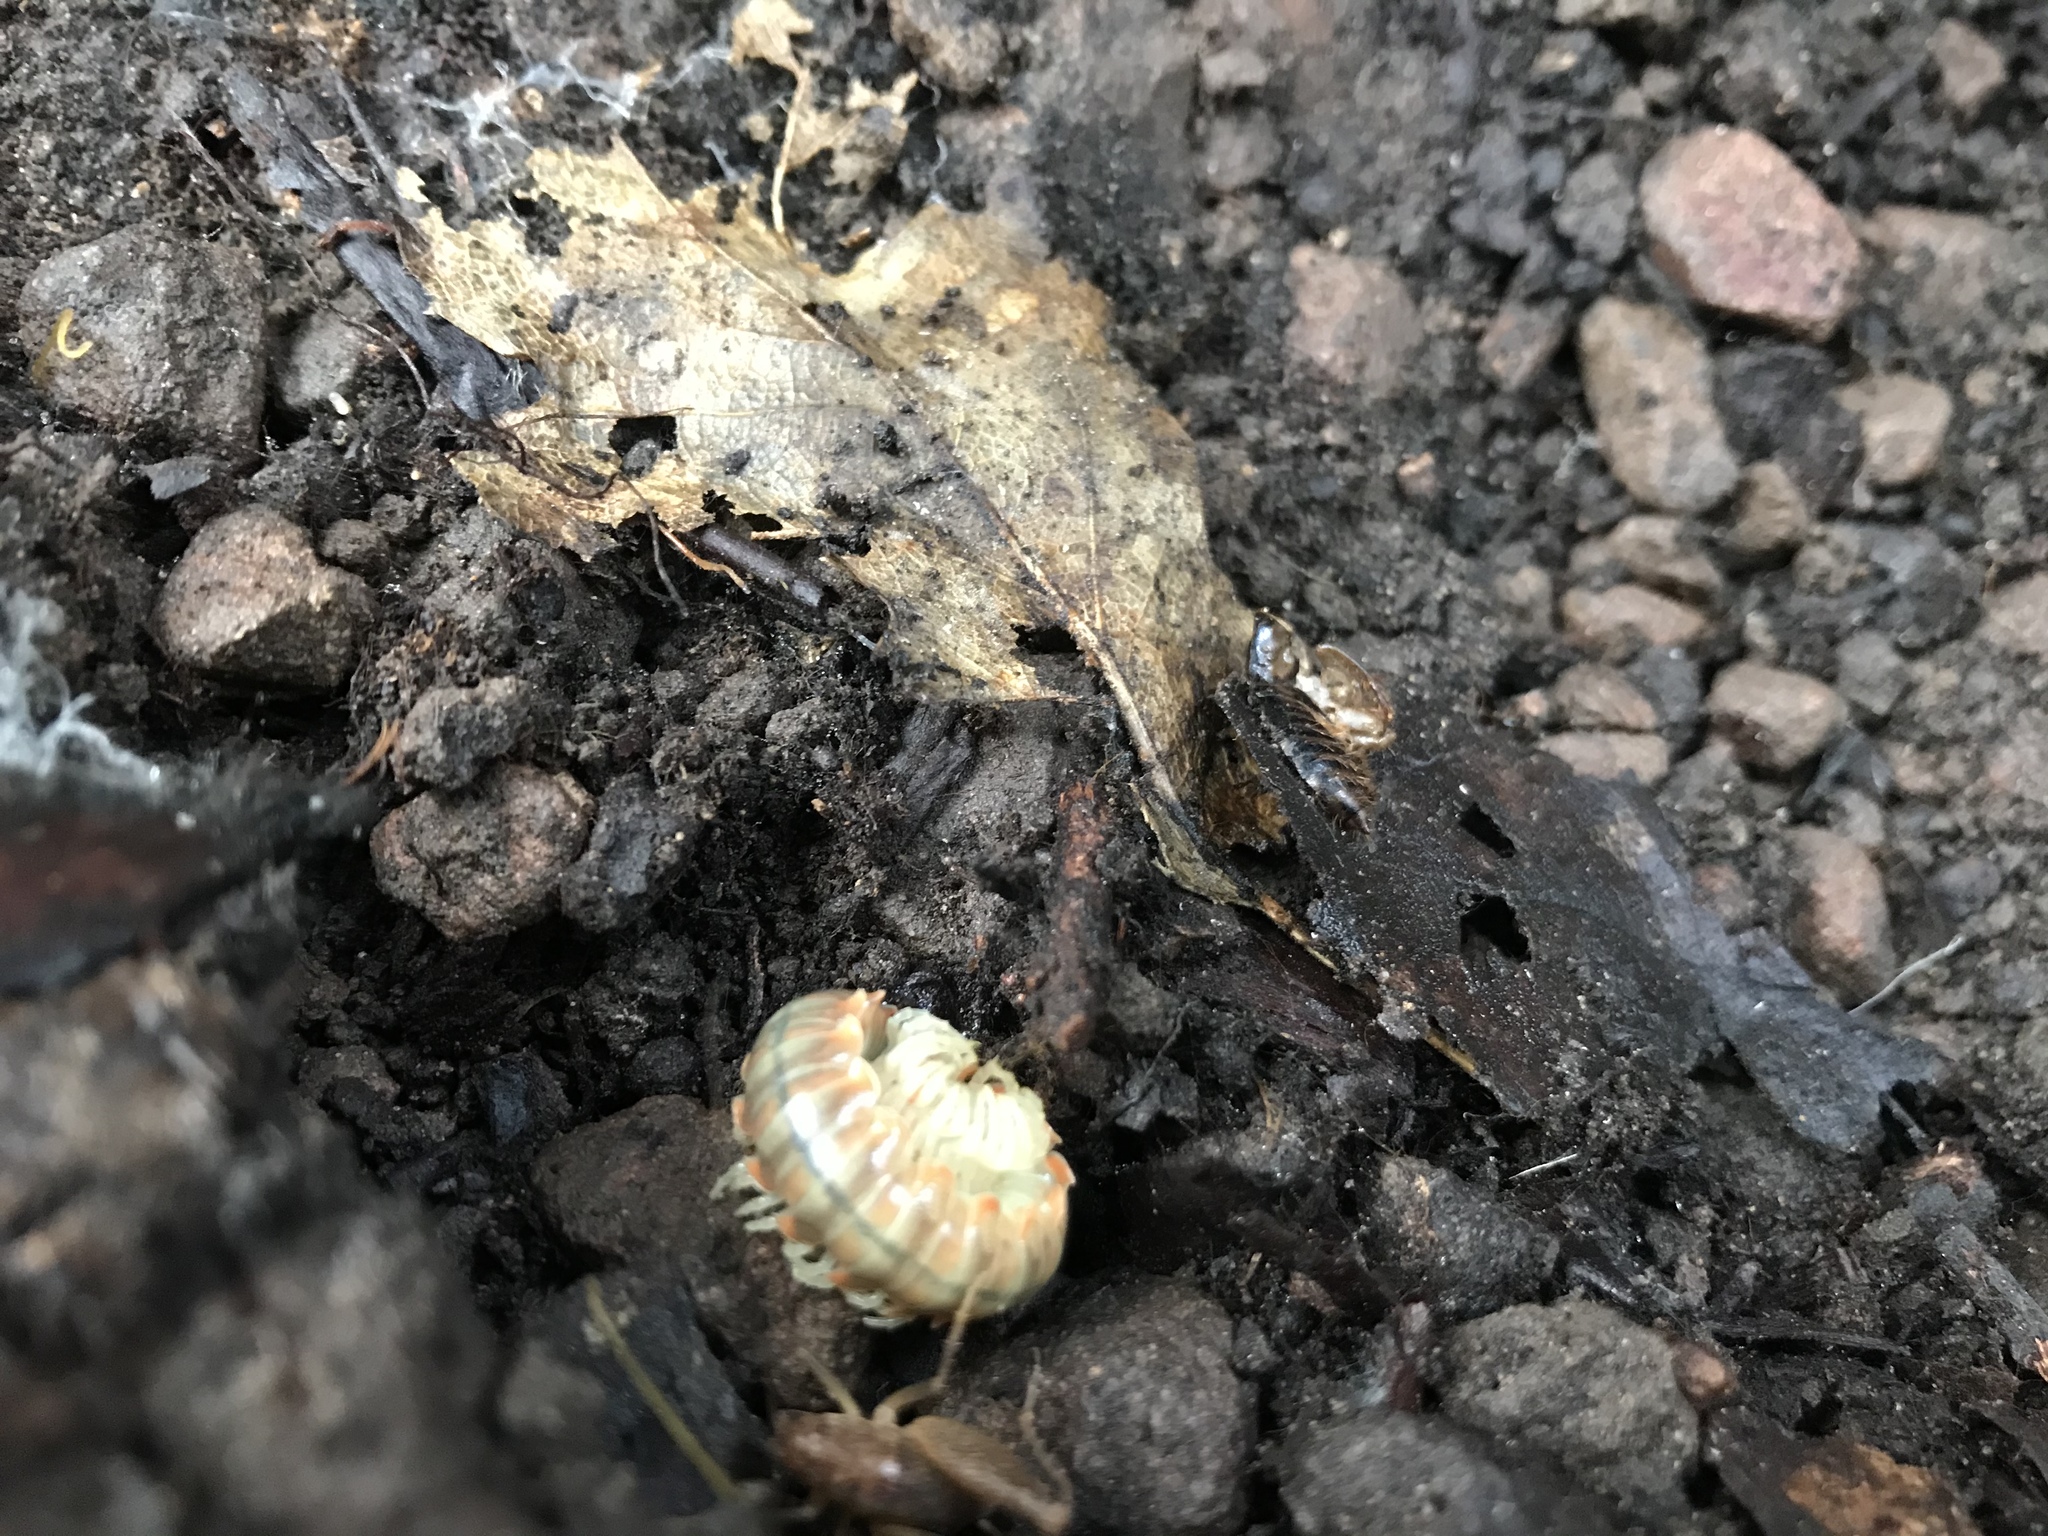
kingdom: Animalia
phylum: Arthropoda
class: Diplopoda
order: Polydesmida
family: Xystodesmidae
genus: Xystocheir
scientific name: Xystocheir dissecta
